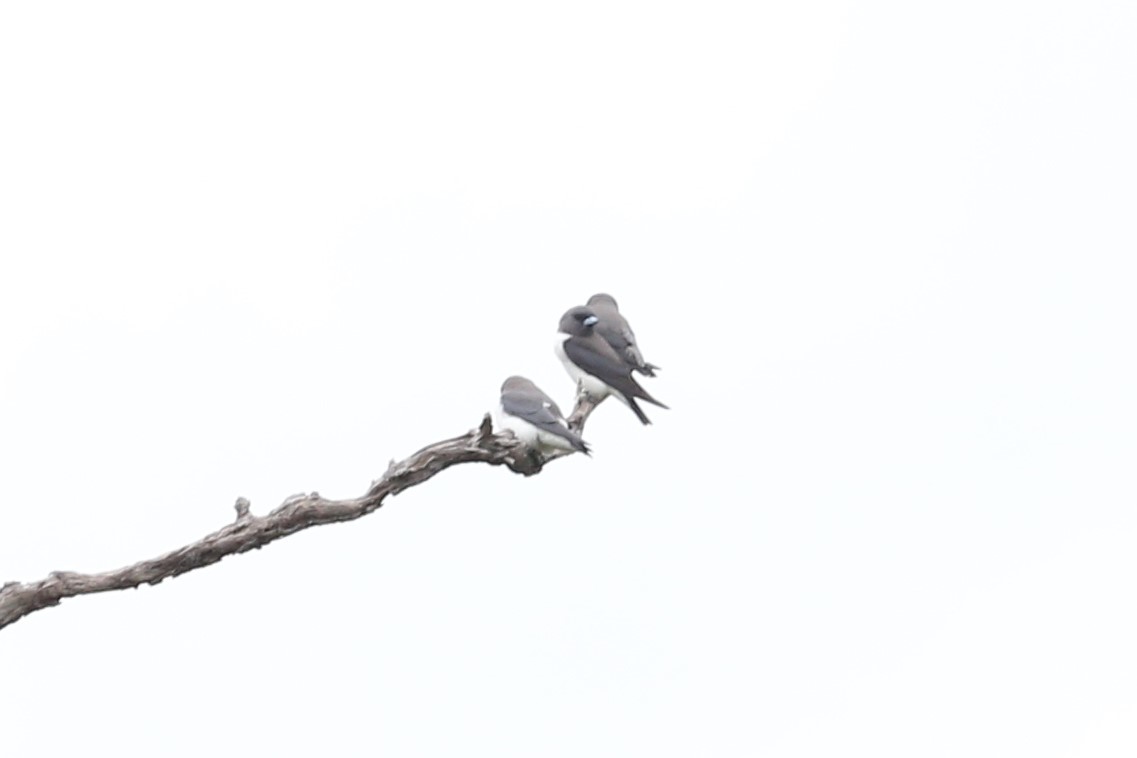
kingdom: Animalia
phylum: Chordata
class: Aves
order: Passeriformes
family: Artamidae
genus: Artamus
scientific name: Artamus leucoryn
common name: White-breasted woodswallow
